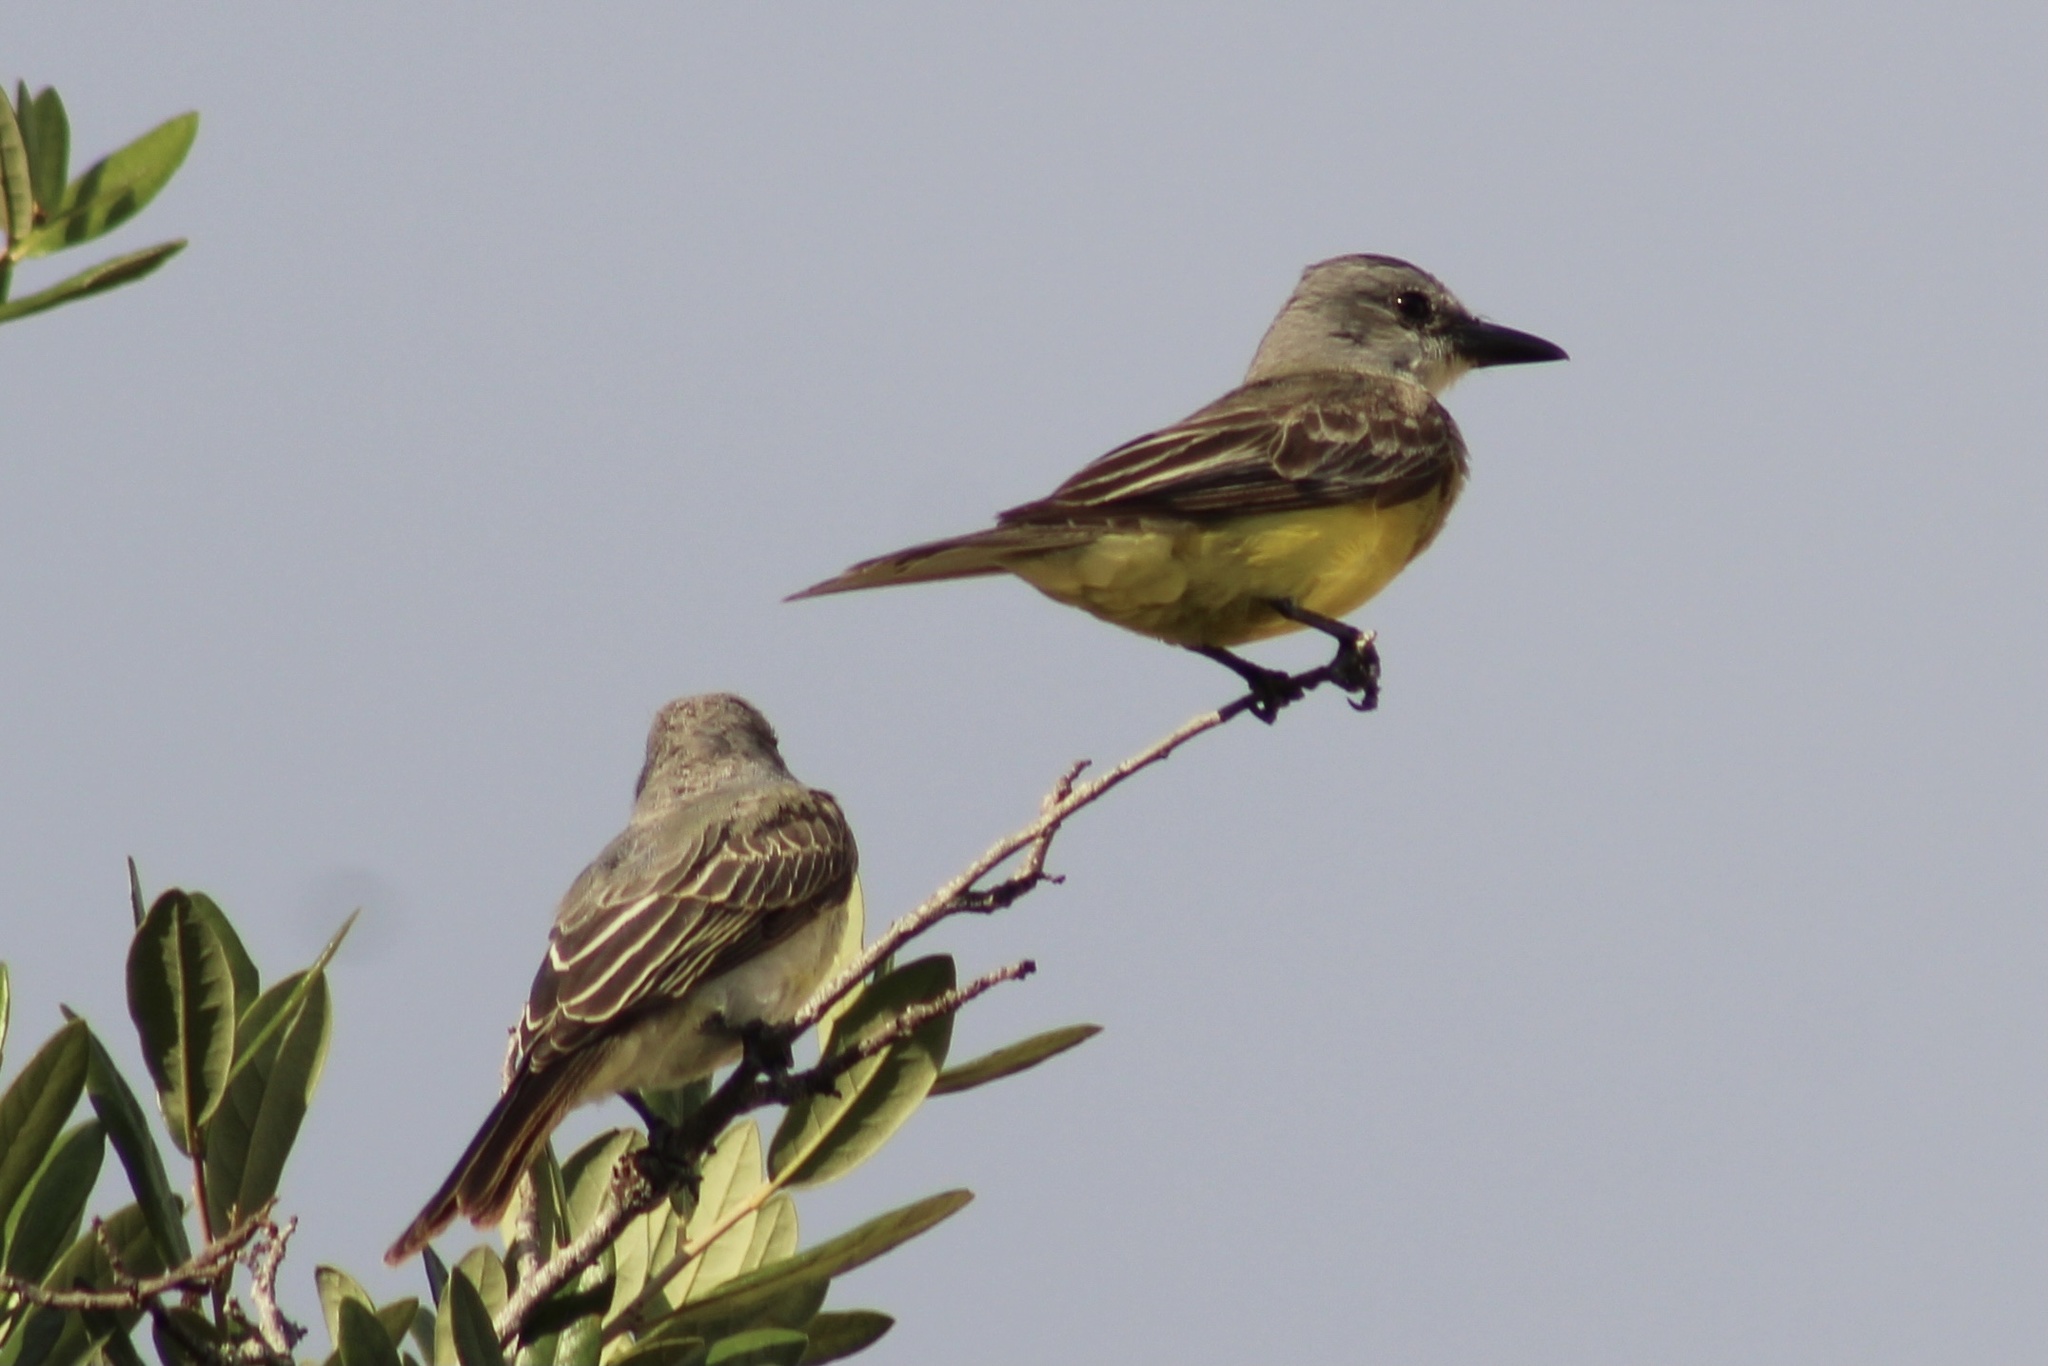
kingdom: Animalia
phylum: Chordata
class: Aves
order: Passeriformes
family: Tyrannidae
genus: Tyrannus
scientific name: Tyrannus melancholicus
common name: Tropical kingbird
